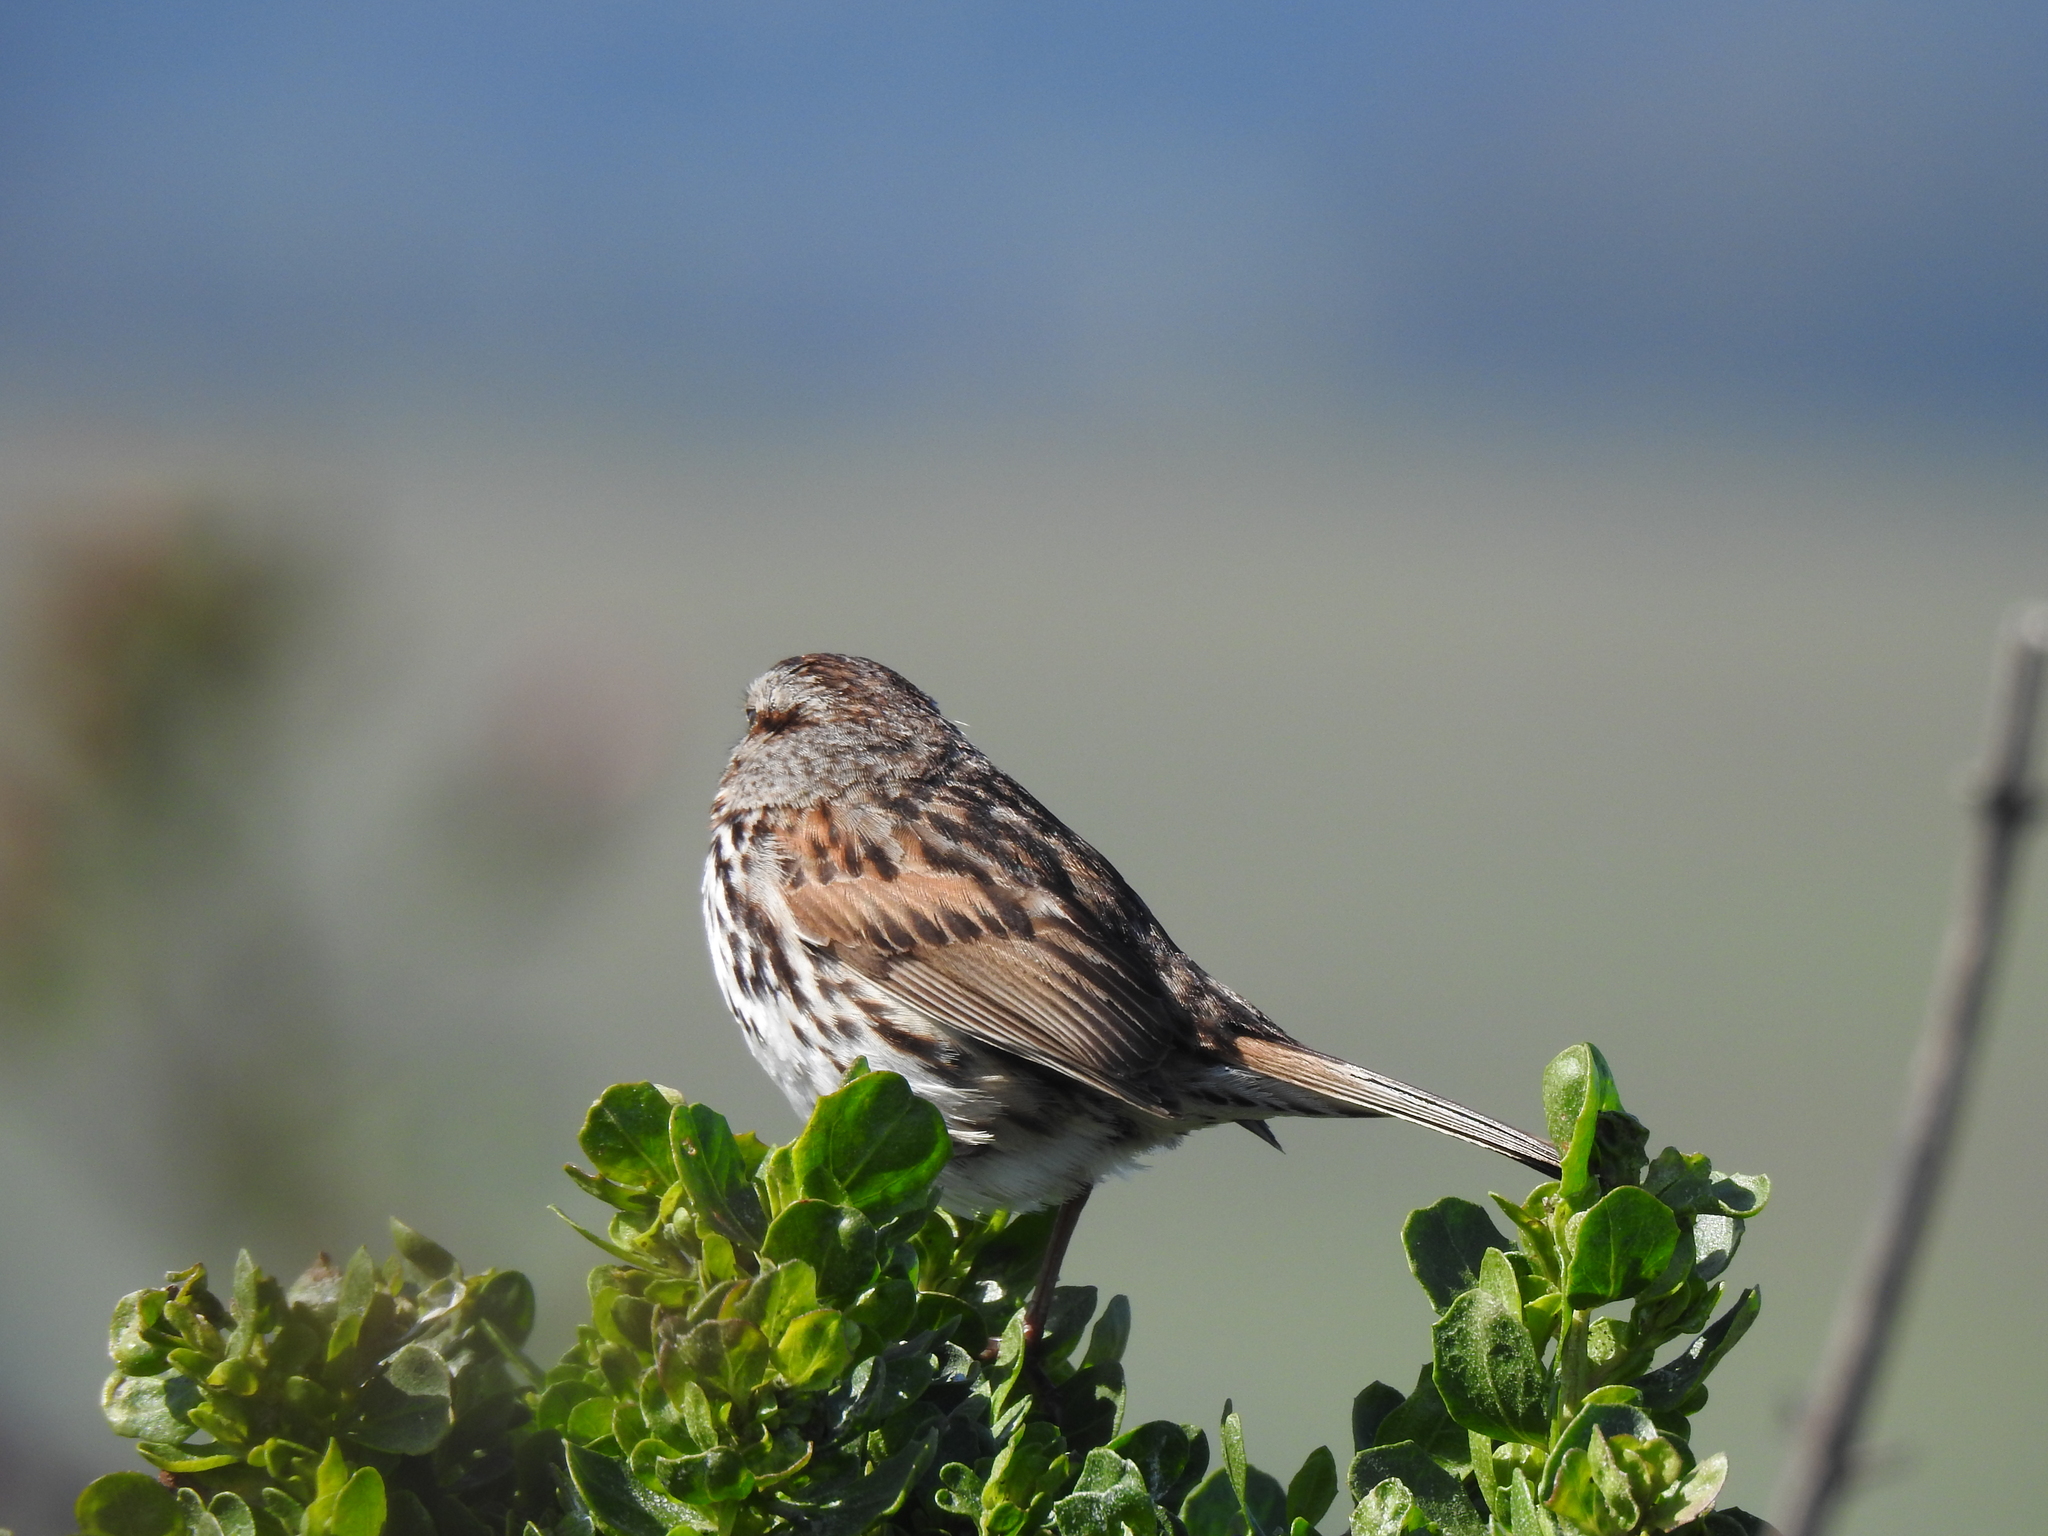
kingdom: Animalia
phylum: Chordata
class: Aves
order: Passeriformes
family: Passerellidae
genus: Melospiza
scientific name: Melospiza melodia
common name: Song sparrow
